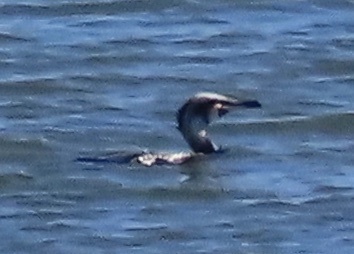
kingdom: Animalia
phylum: Chordata
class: Aves
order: Suliformes
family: Phalacrocoracidae
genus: Phalacrocorax
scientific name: Phalacrocorax carbo
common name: Great cormorant
